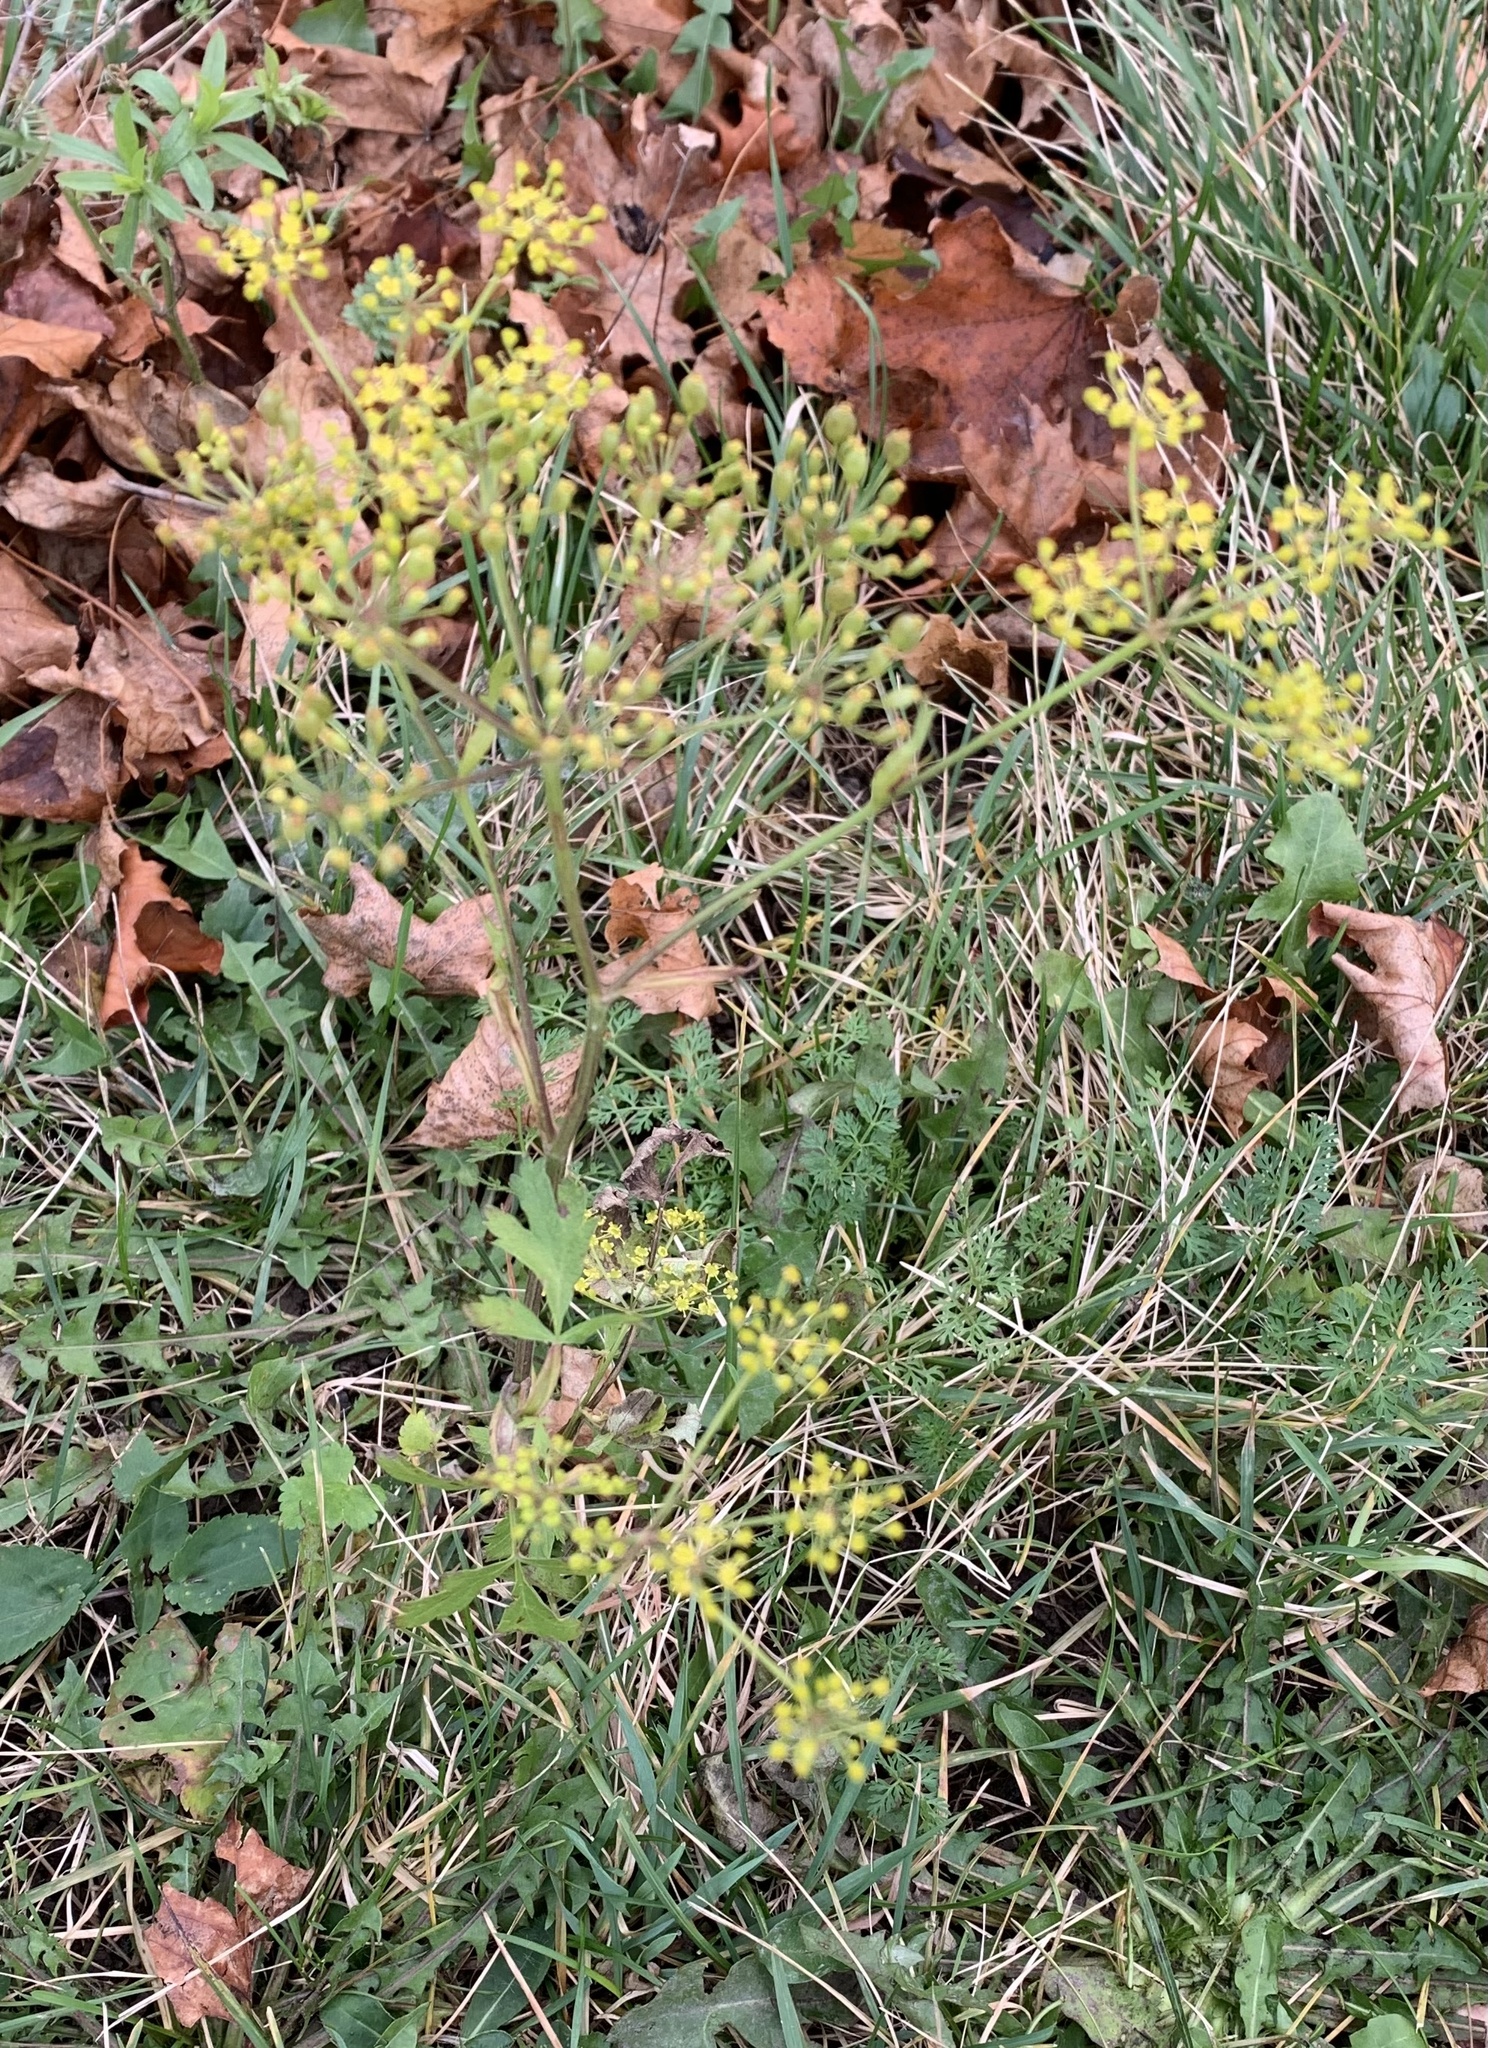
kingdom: Plantae
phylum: Tracheophyta
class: Magnoliopsida
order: Apiales
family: Apiaceae
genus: Pastinaca
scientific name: Pastinaca sativa
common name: Wild parsnip
